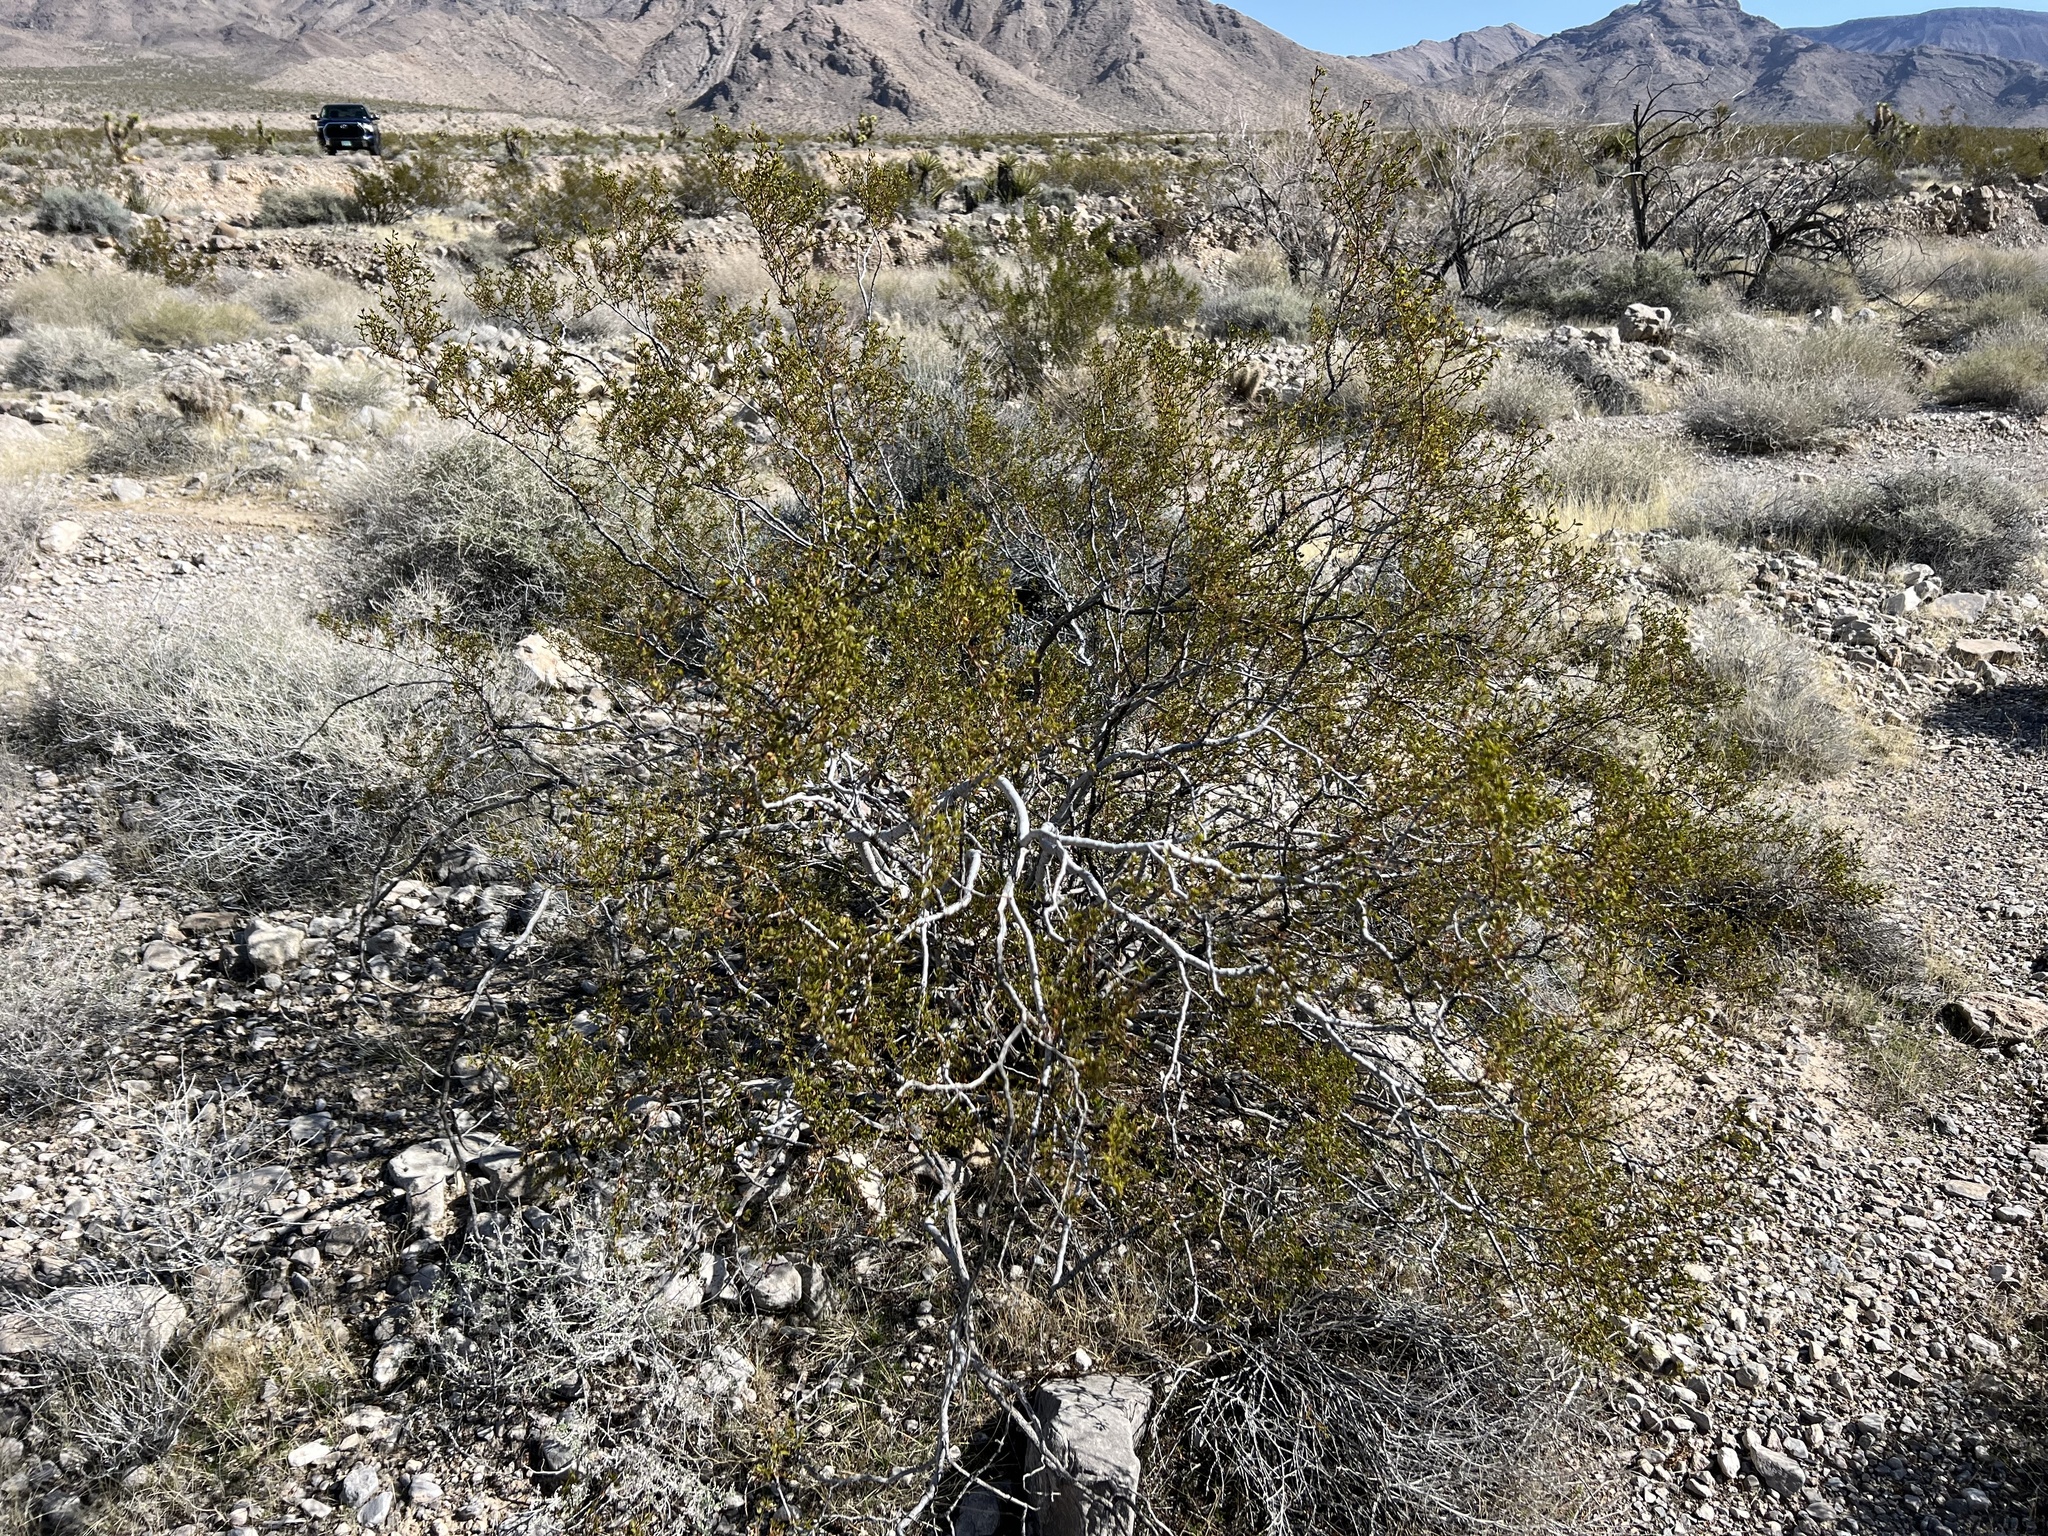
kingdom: Plantae
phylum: Tracheophyta
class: Magnoliopsida
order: Zygophyllales
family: Zygophyllaceae
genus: Larrea
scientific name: Larrea tridentata
